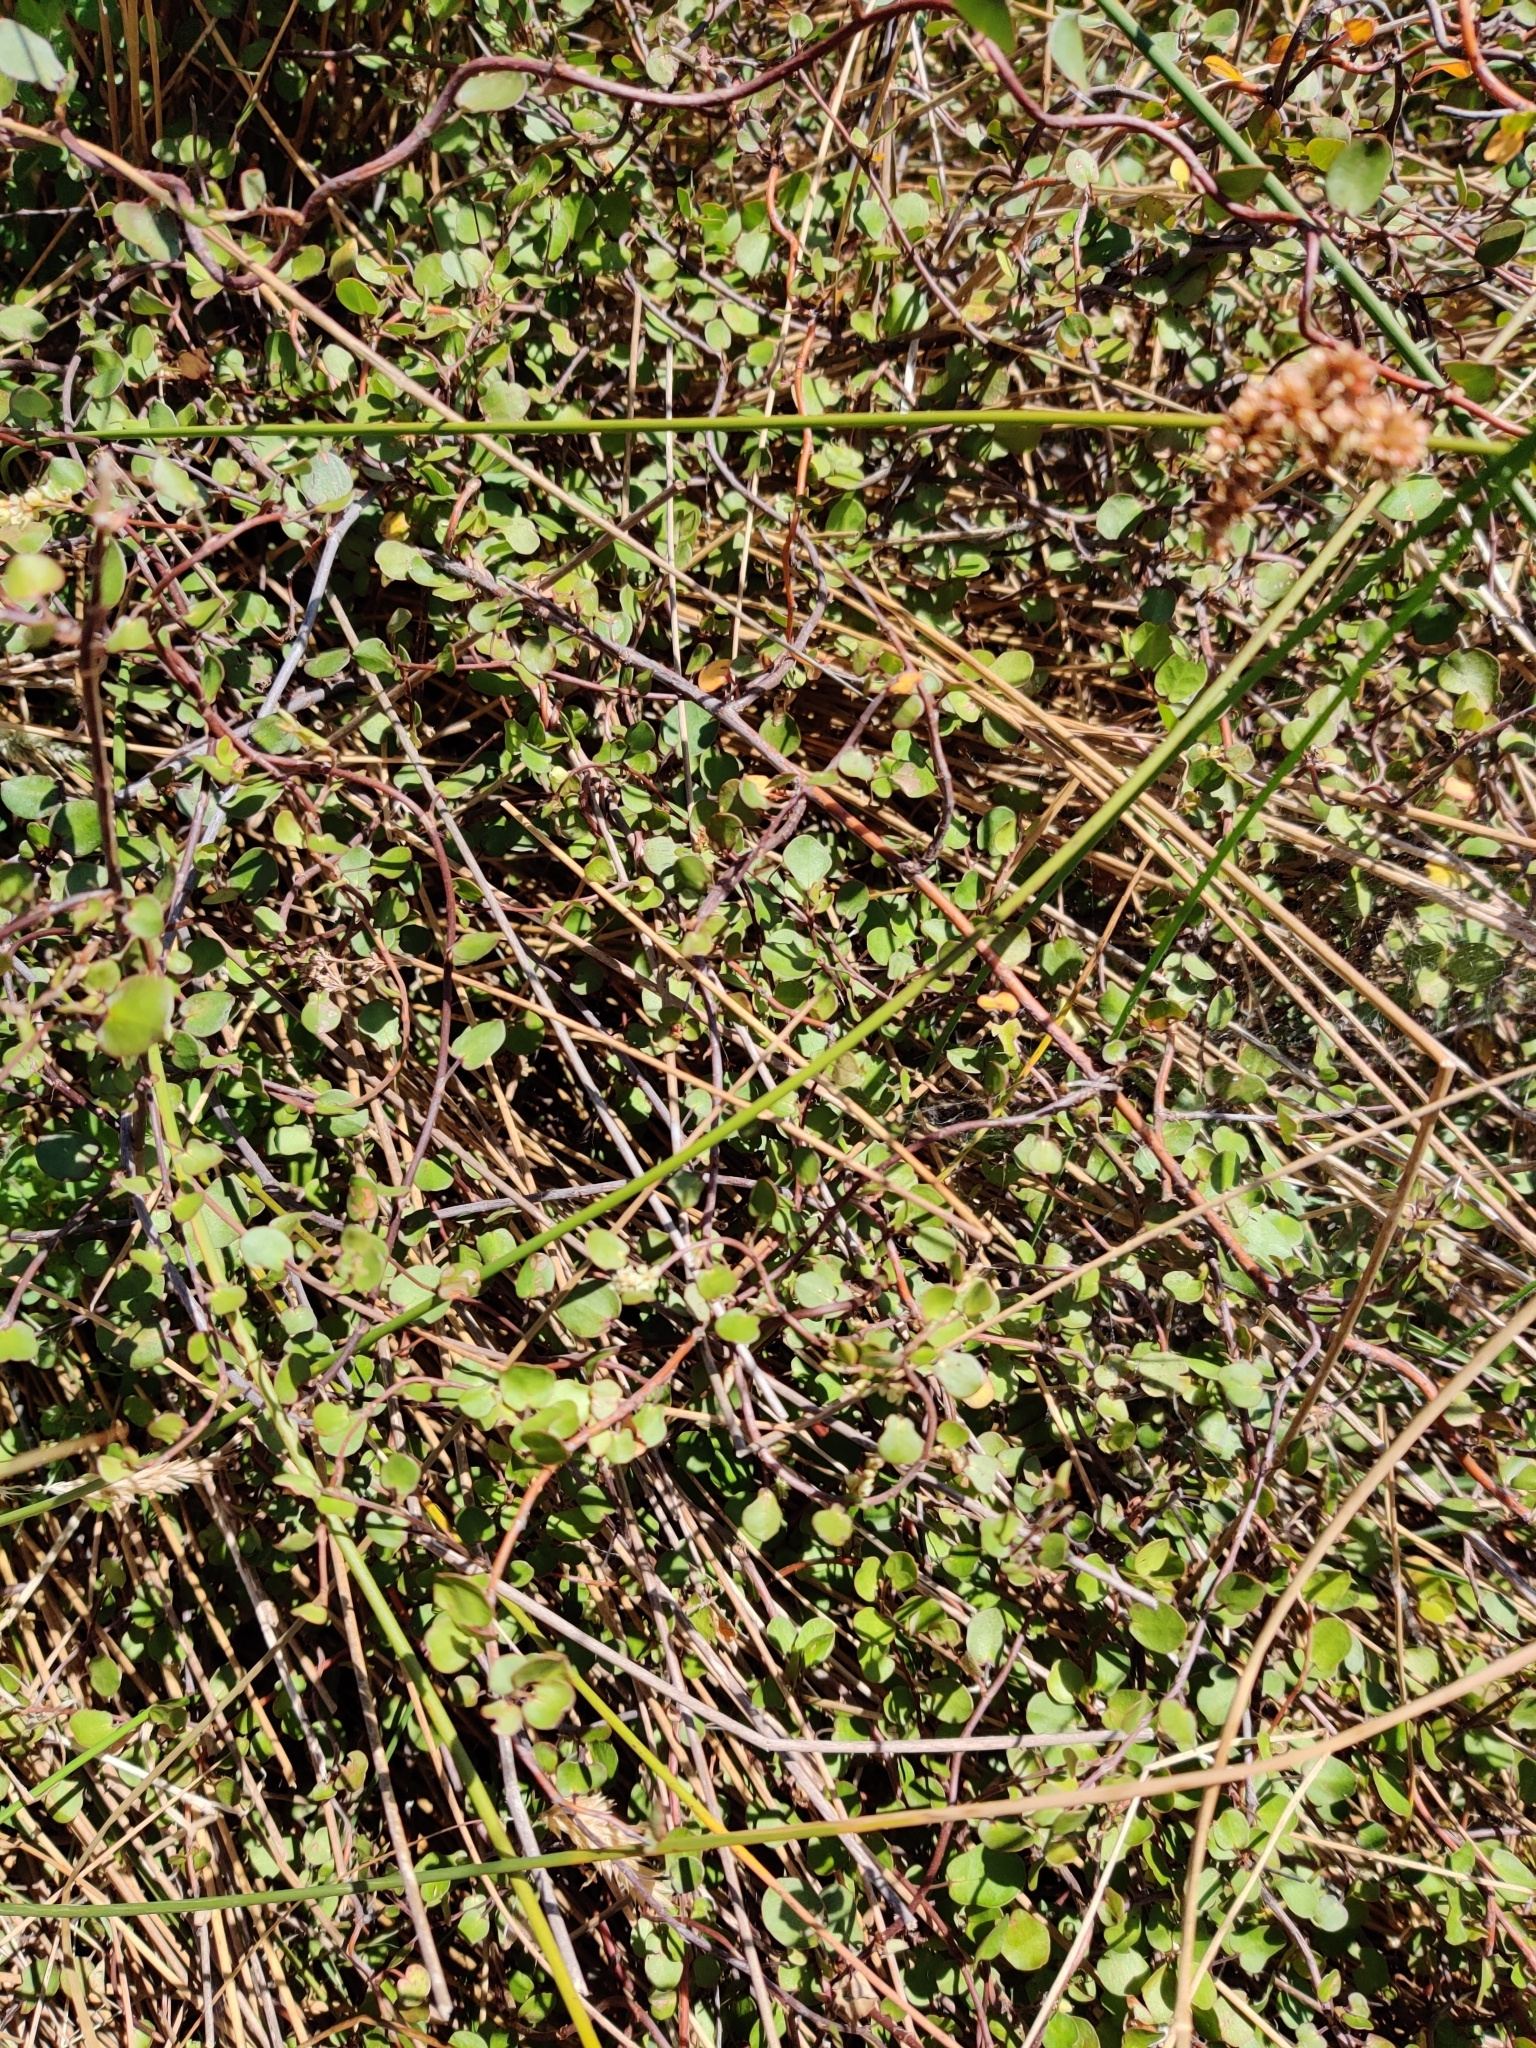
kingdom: Plantae
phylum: Tracheophyta
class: Magnoliopsida
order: Caryophyllales
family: Polygonaceae
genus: Muehlenbeckia
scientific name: Muehlenbeckia complexa
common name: Wireplant
